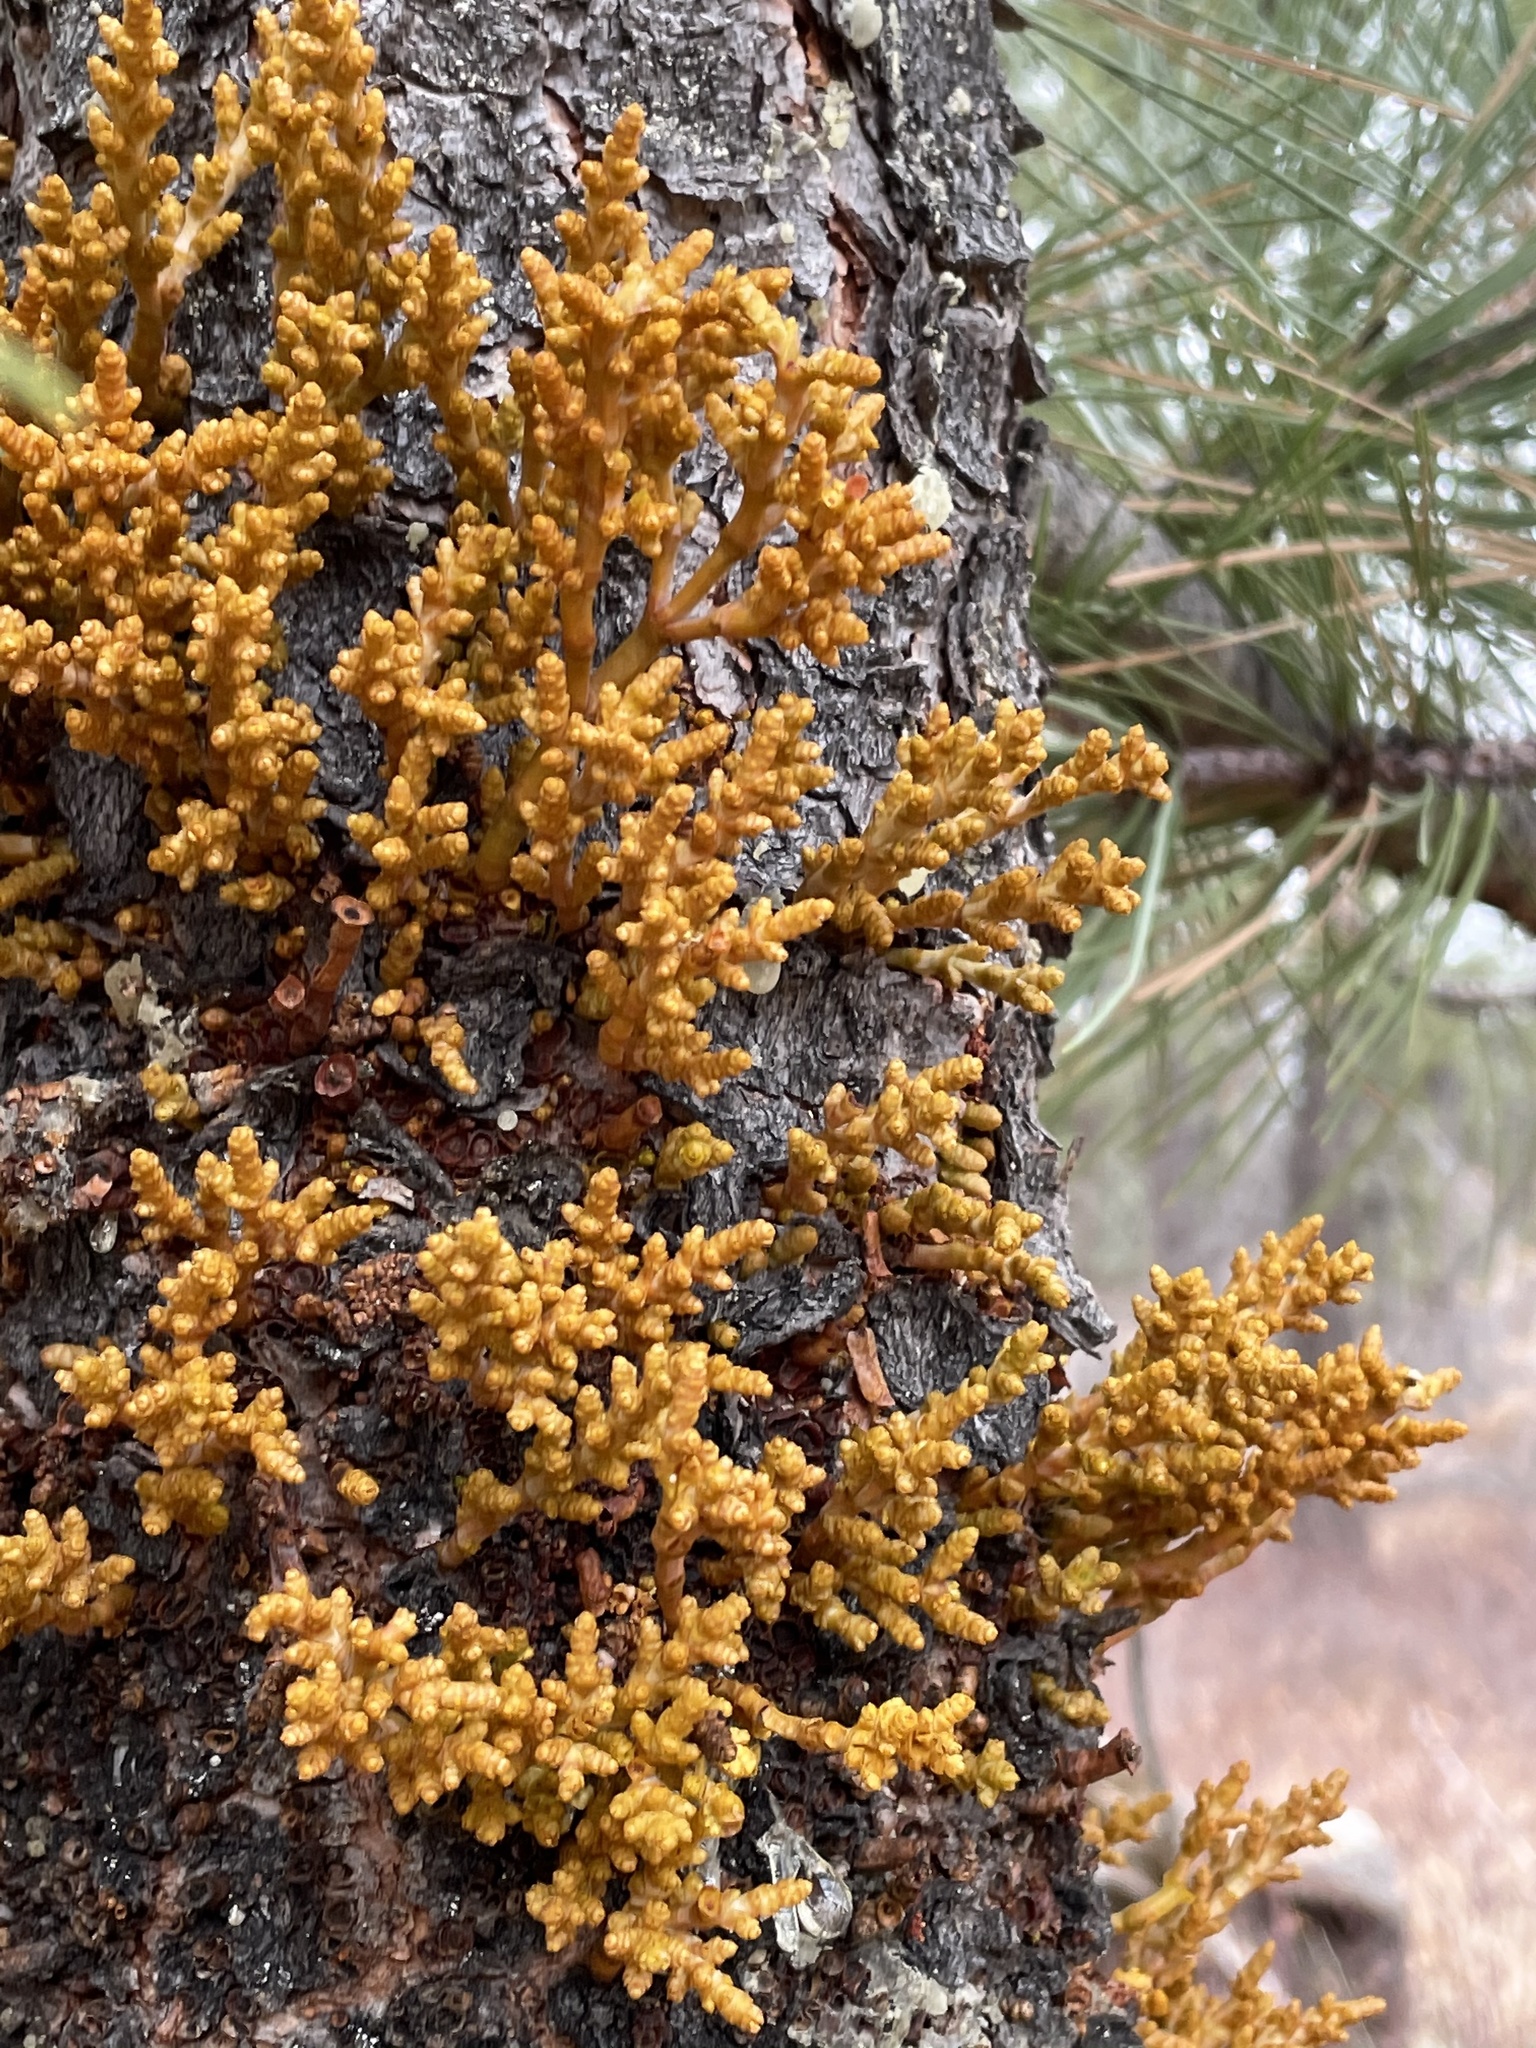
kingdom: Plantae
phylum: Tracheophyta
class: Magnoliopsida
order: Santalales
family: Viscaceae
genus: Arceuthobium
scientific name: Arceuthobium campylopodum
